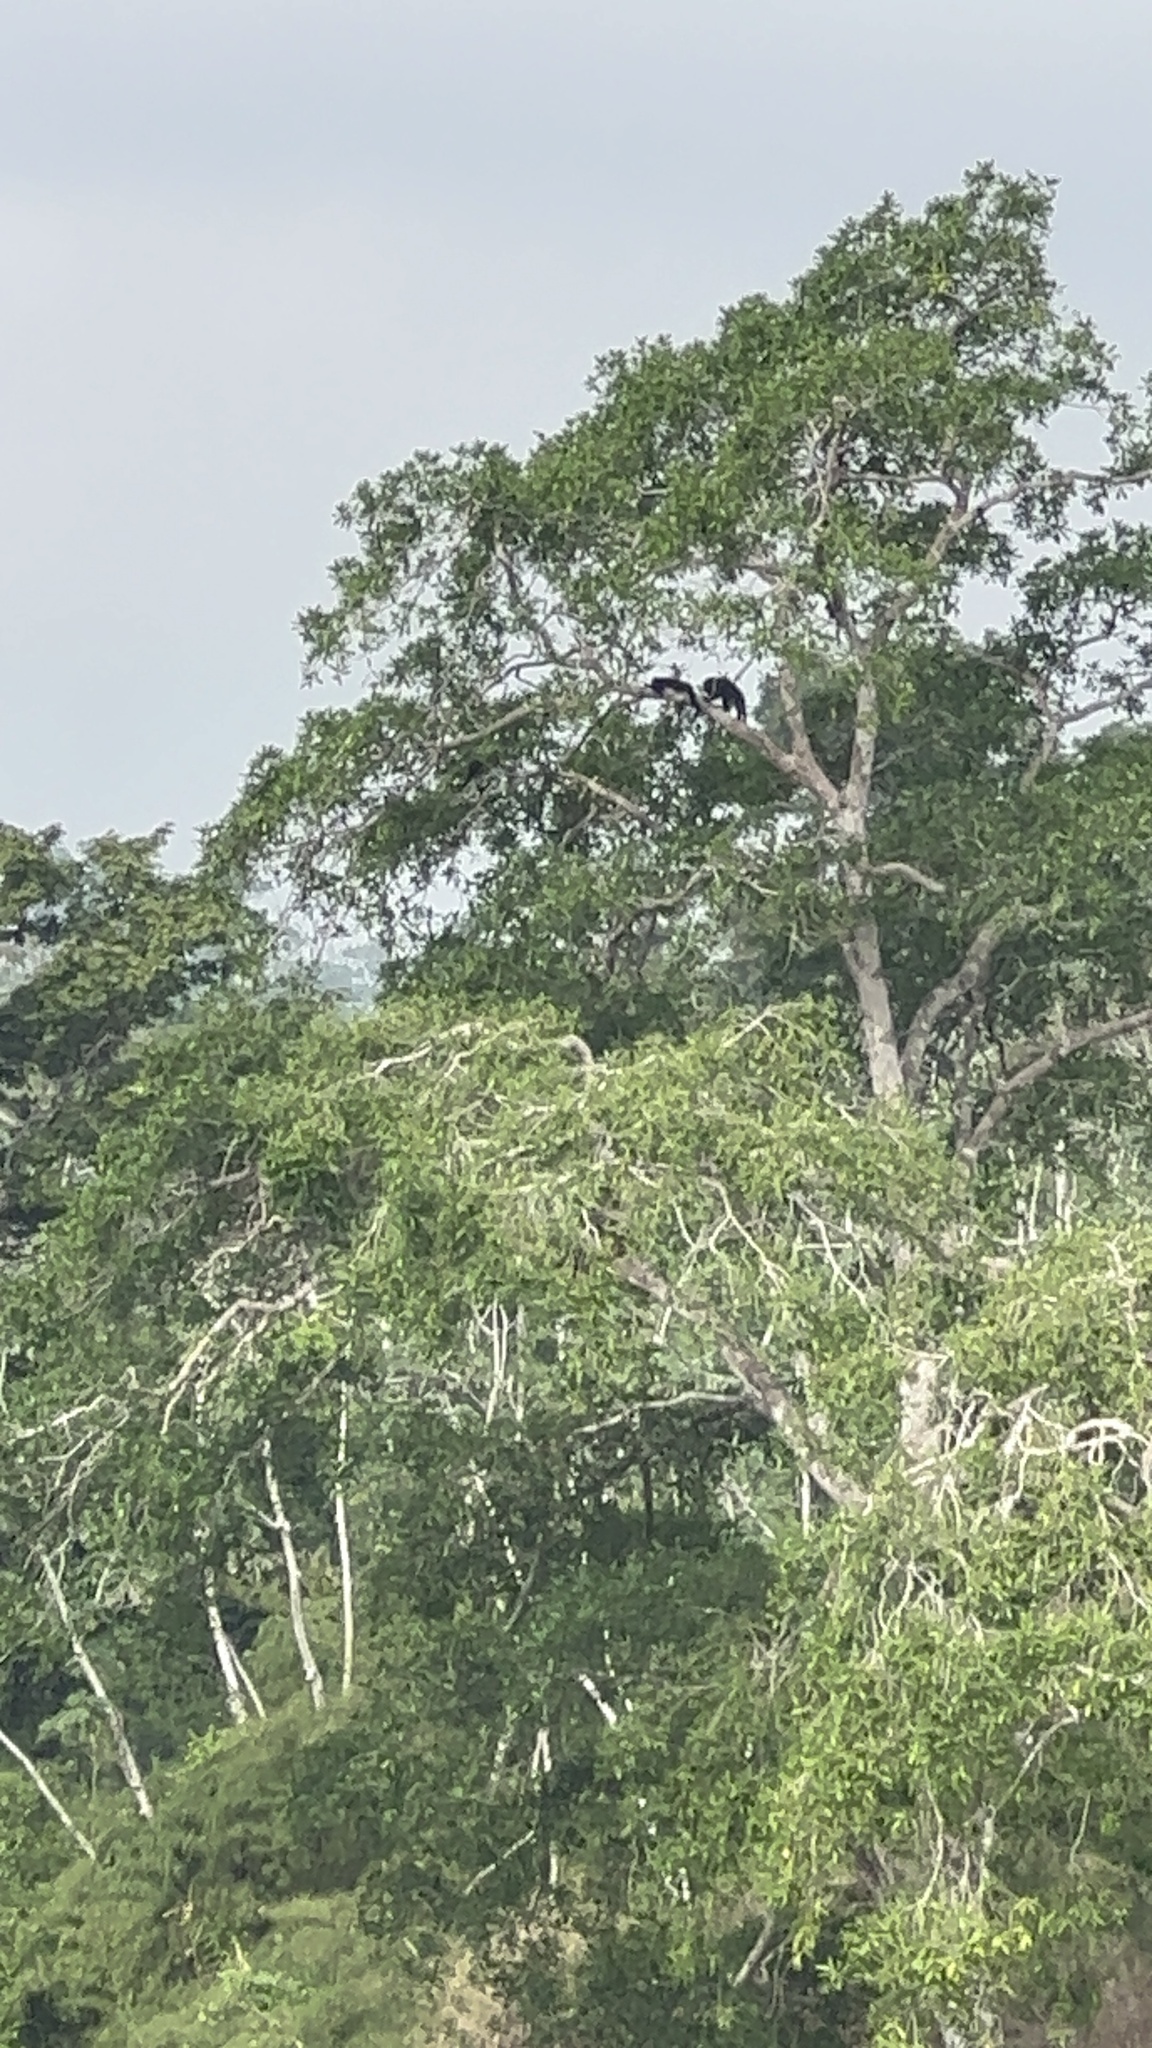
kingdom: Animalia
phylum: Chordata
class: Mammalia
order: Primates
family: Atelidae
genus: Alouatta
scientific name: Alouatta pigra
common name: Guatemalan black howler
